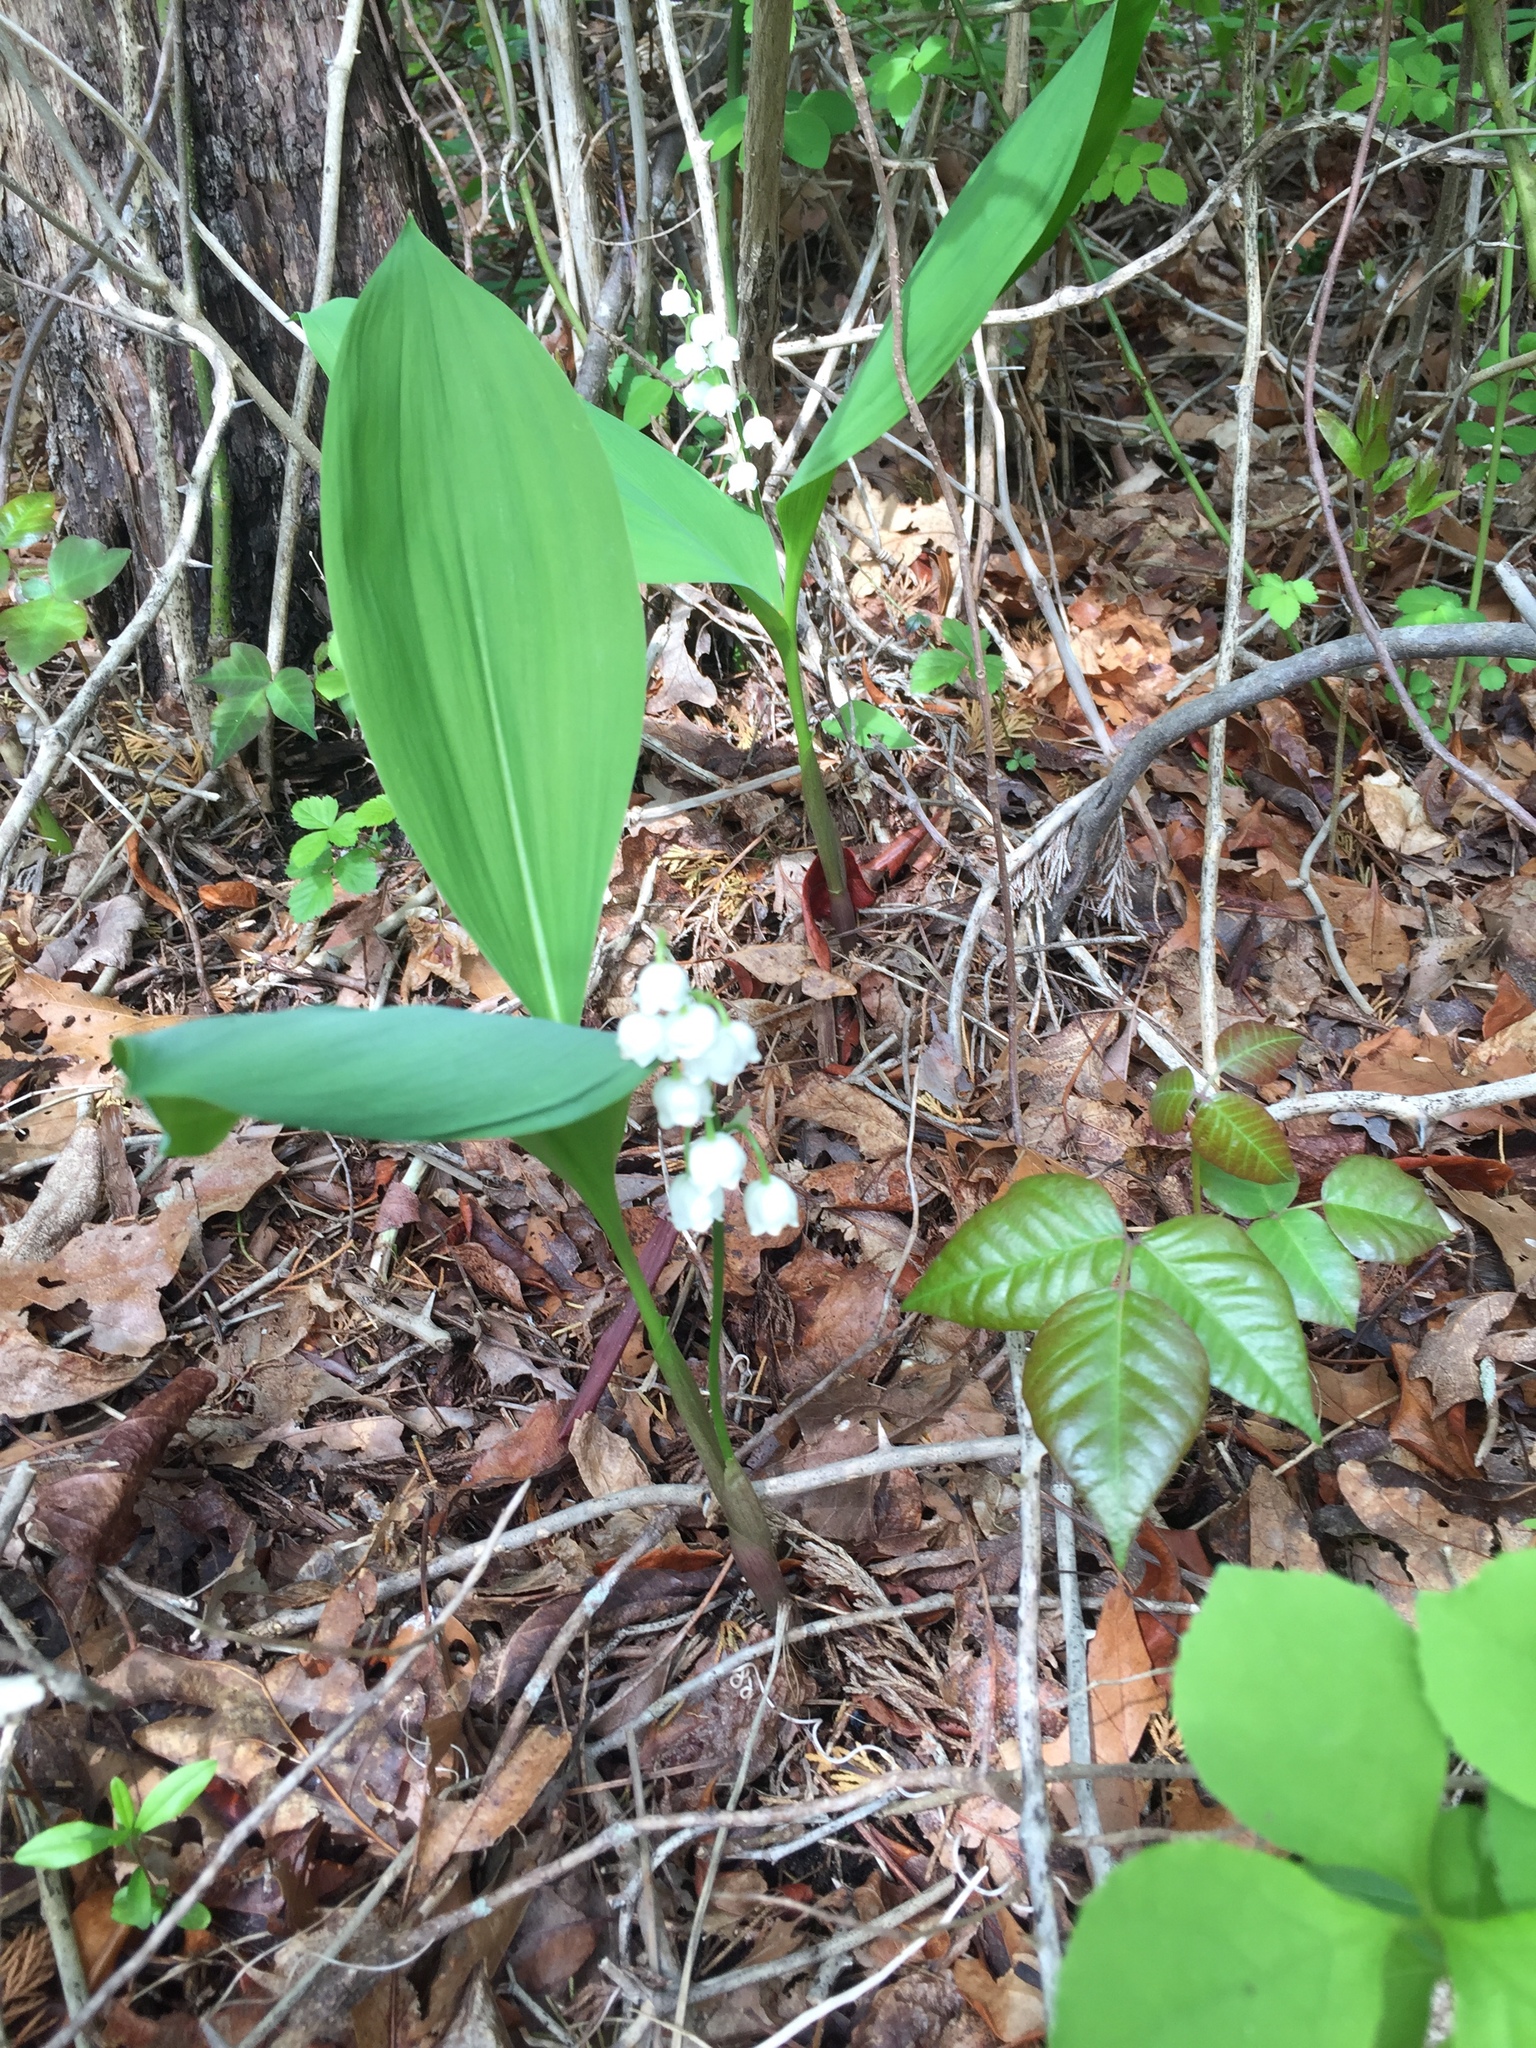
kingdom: Plantae
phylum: Tracheophyta
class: Liliopsida
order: Asparagales
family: Asparagaceae
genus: Convallaria
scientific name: Convallaria majalis
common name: Lily-of-the-valley
